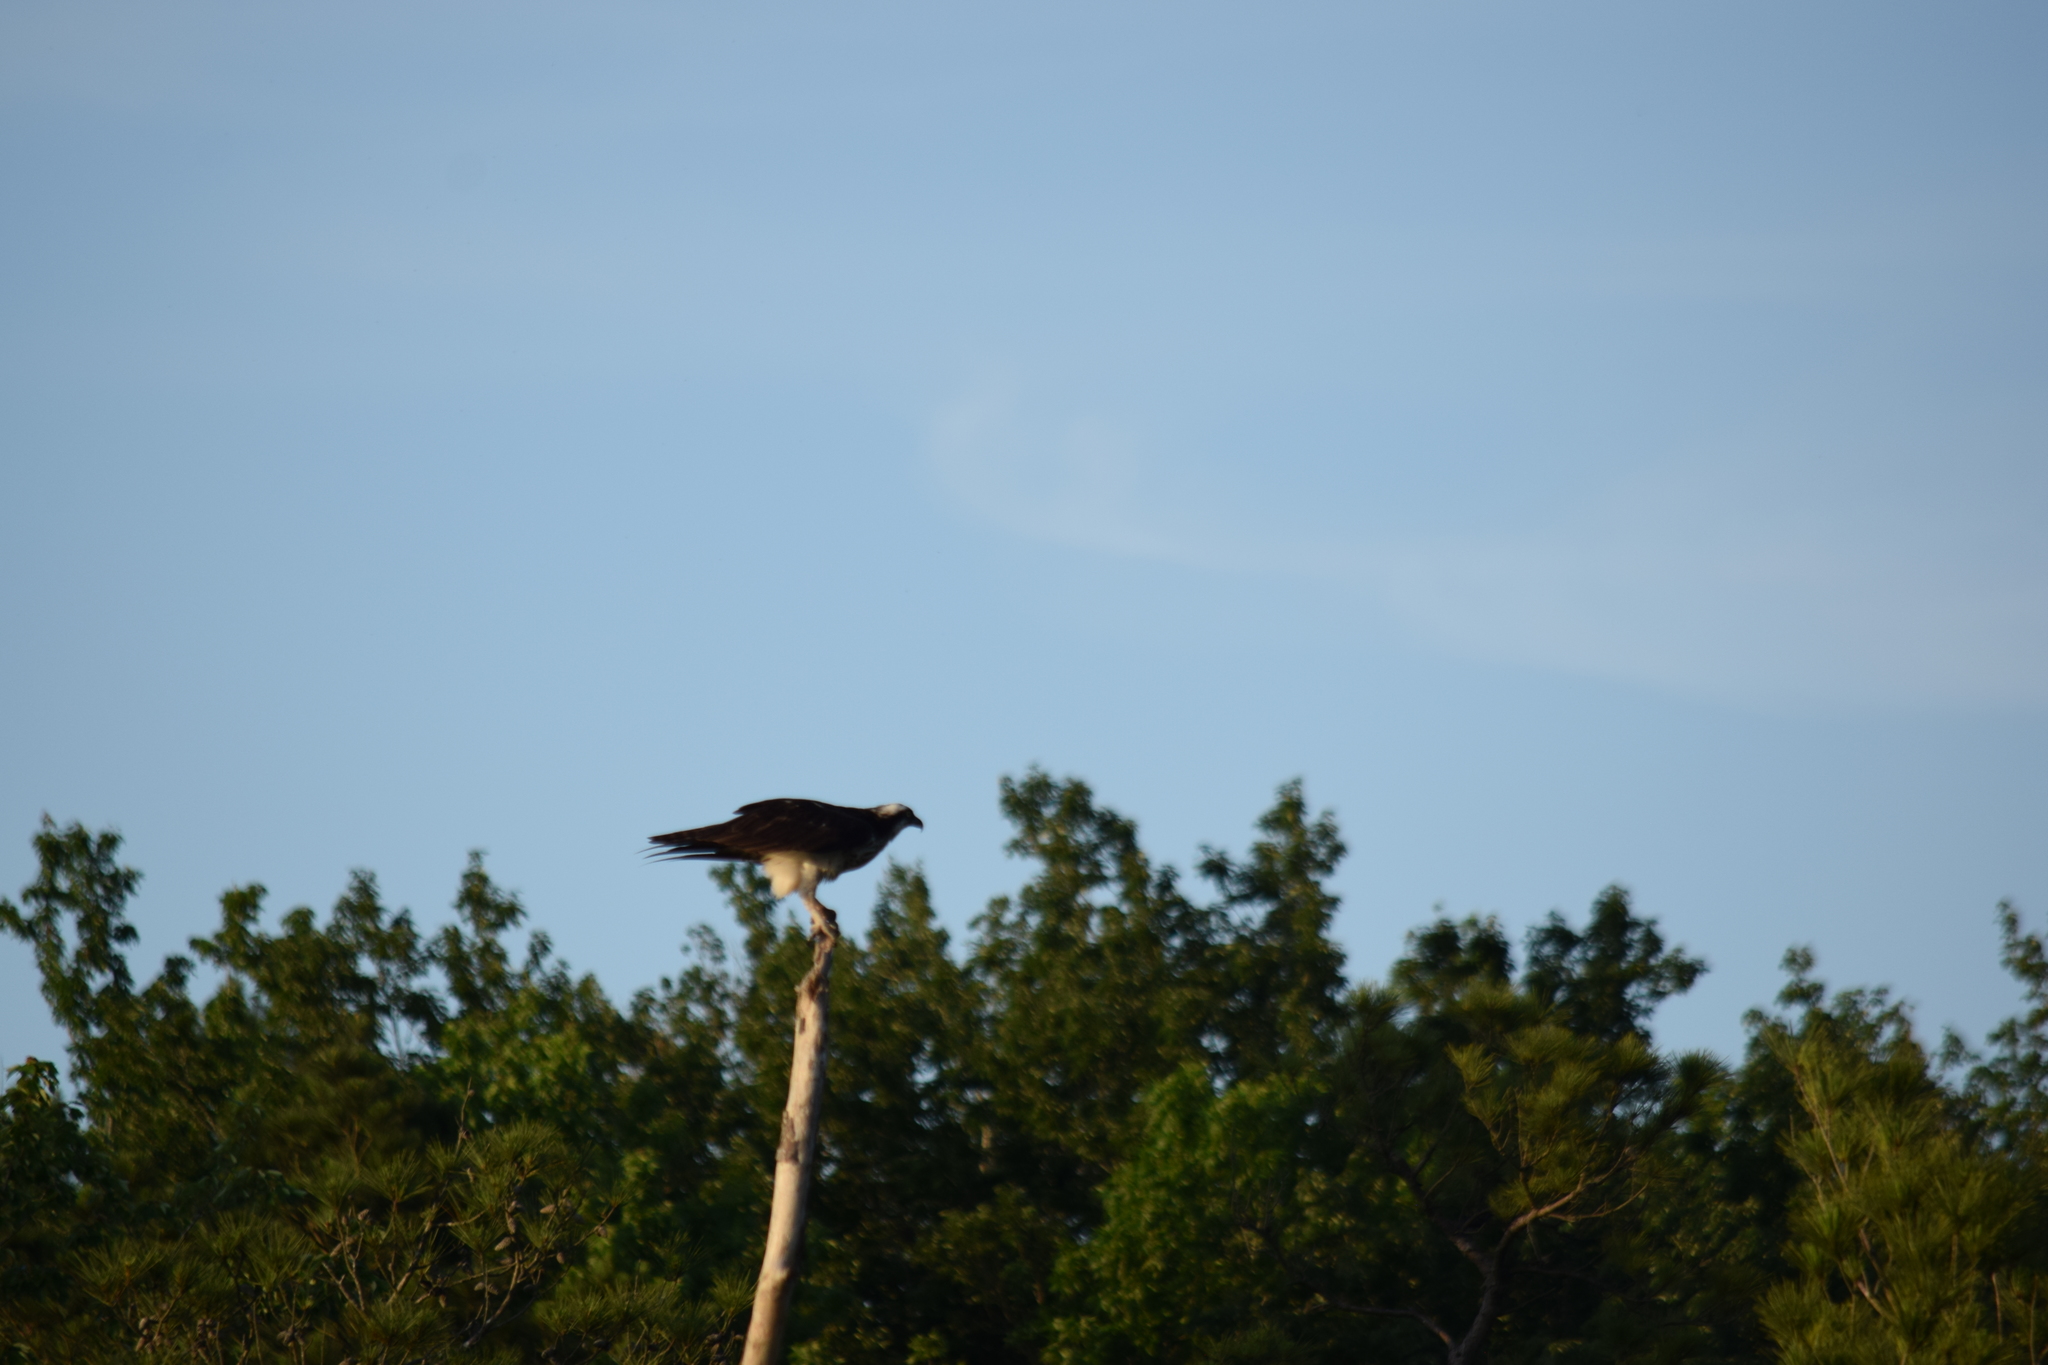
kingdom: Animalia
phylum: Chordata
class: Aves
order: Accipitriformes
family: Pandionidae
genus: Pandion
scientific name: Pandion haliaetus
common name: Osprey
